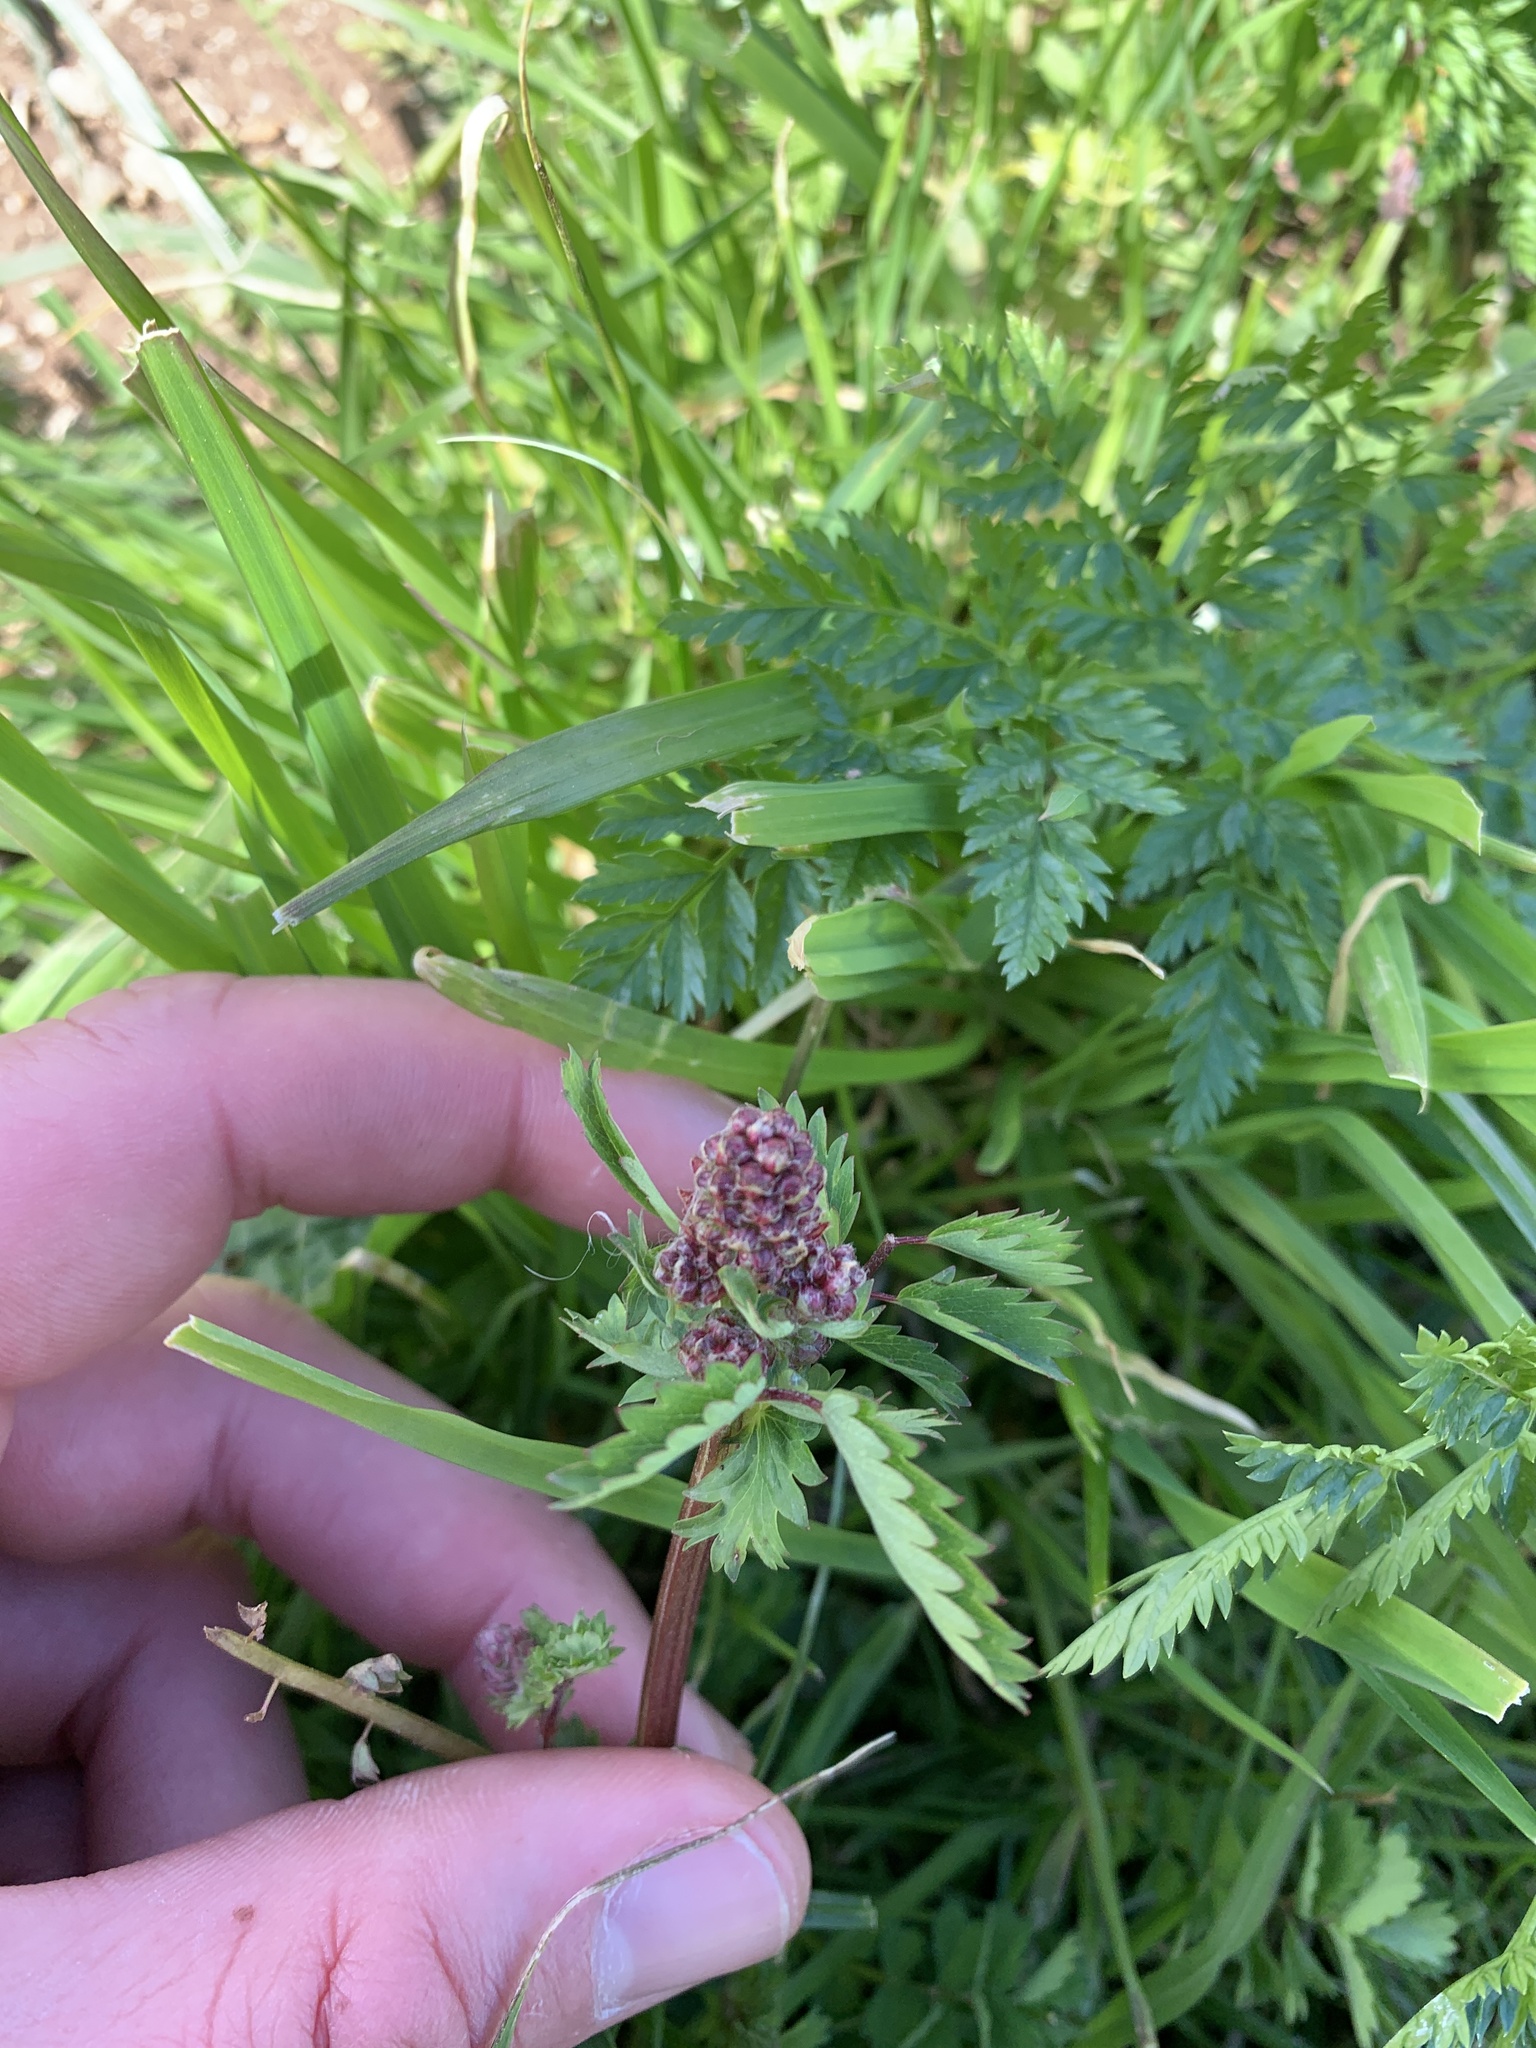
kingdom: Plantae
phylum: Tracheophyta
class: Magnoliopsida
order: Rosales
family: Rosaceae
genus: Sanguisorba
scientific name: Sanguisorba officinalis
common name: Great burnet
